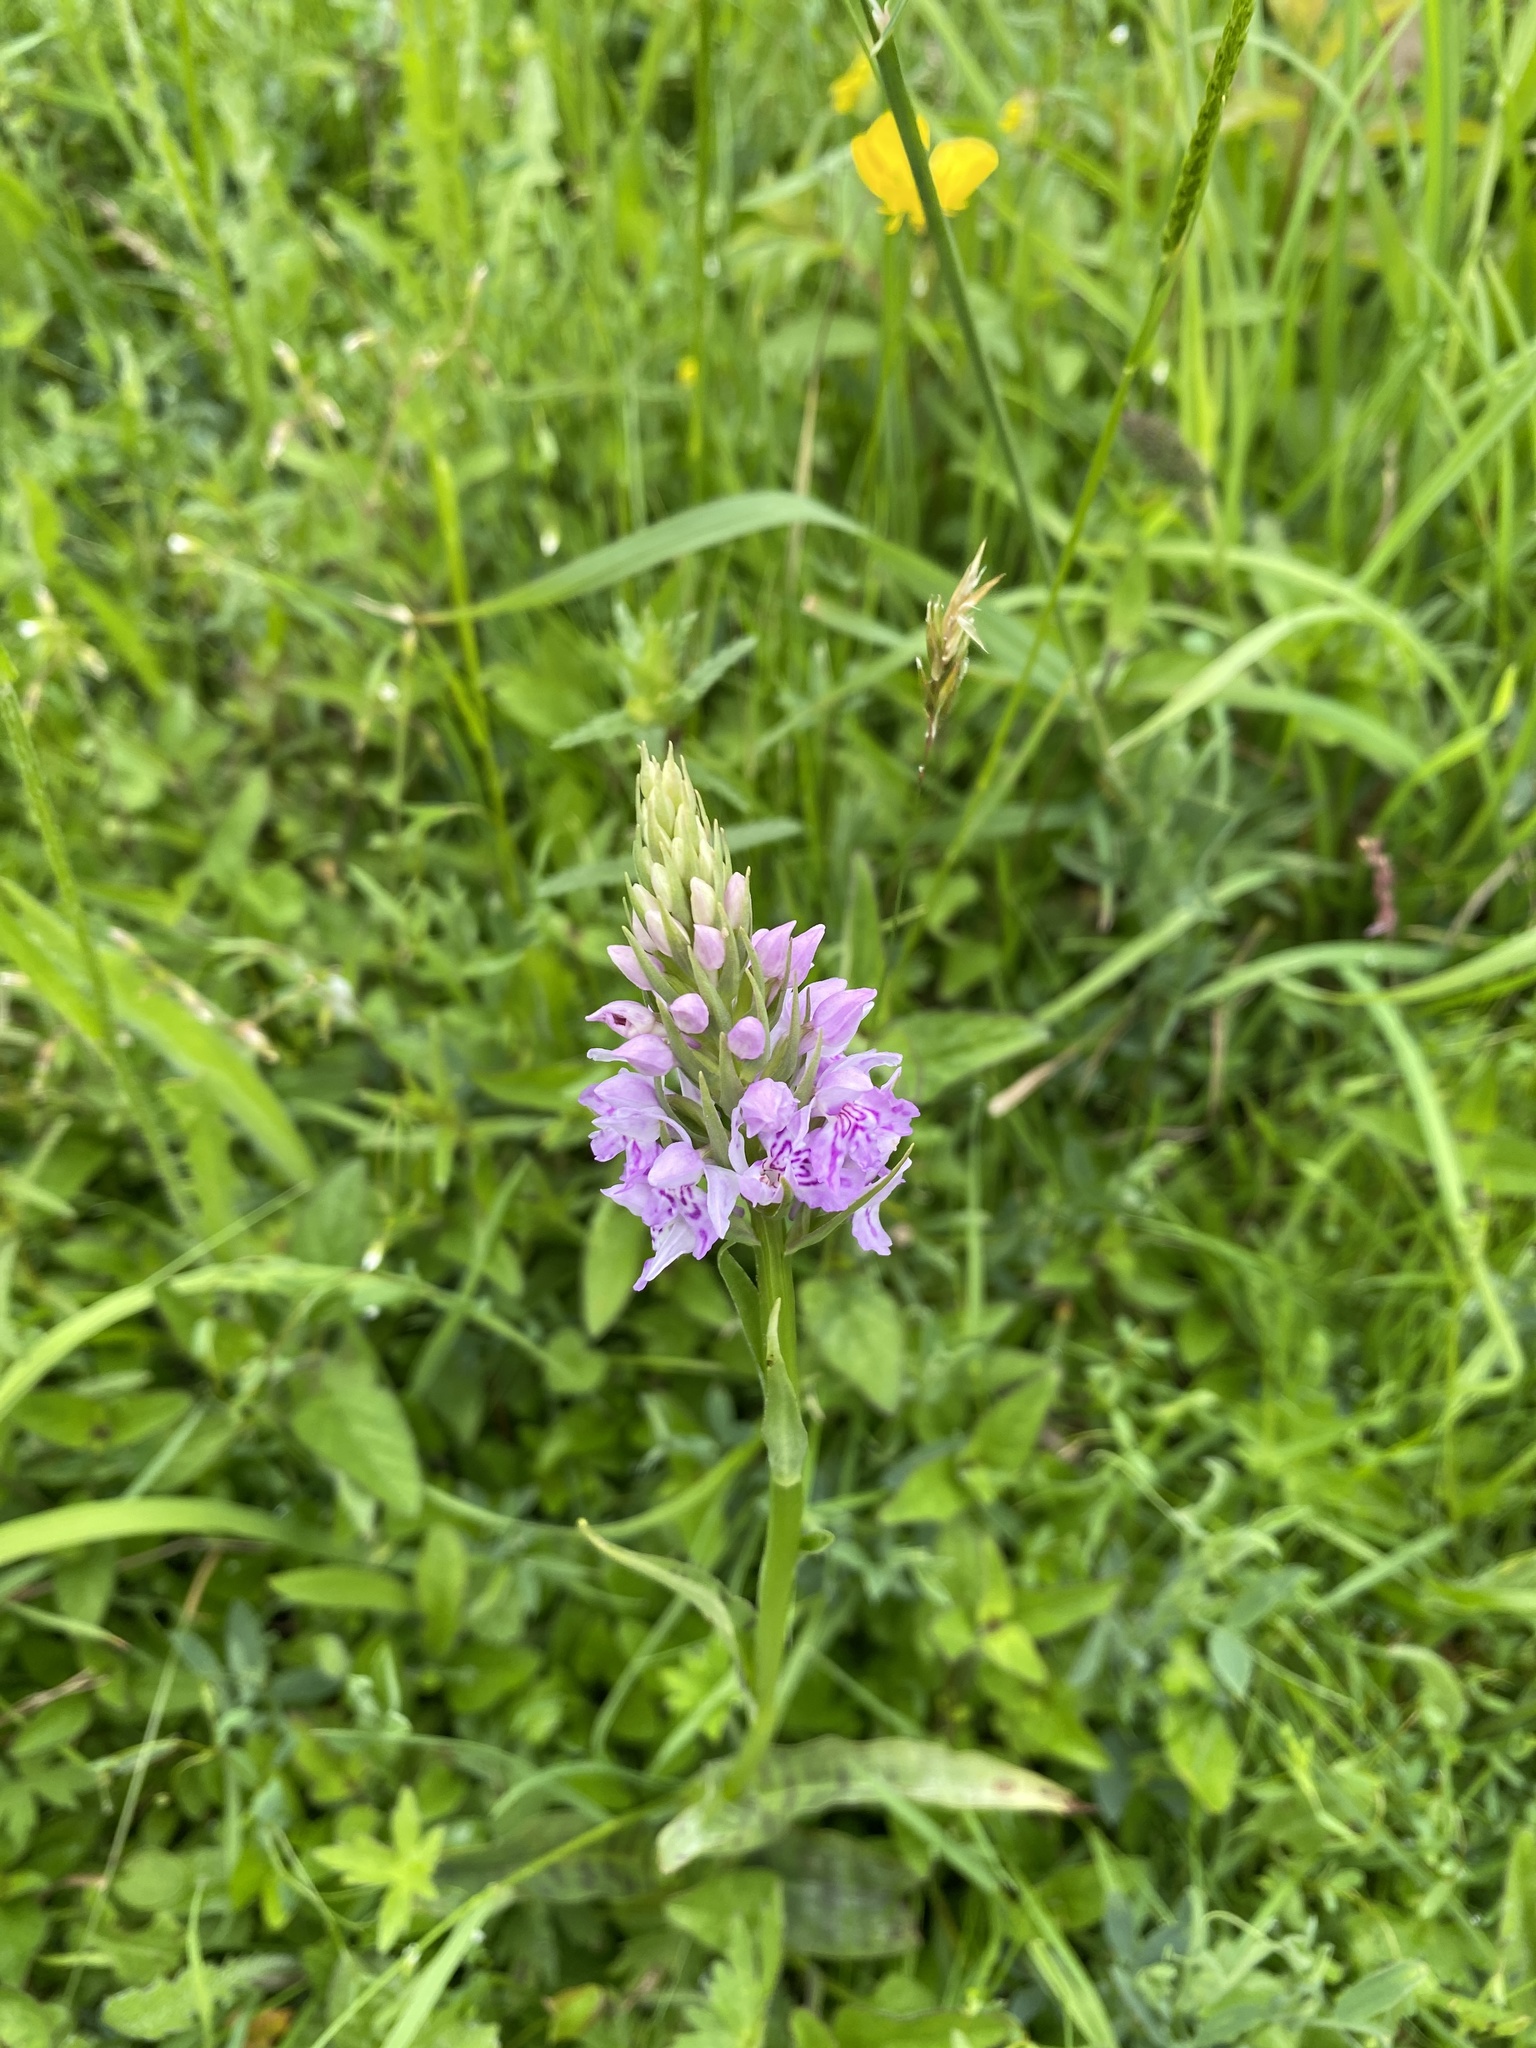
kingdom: Plantae
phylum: Tracheophyta
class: Liliopsida
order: Asparagales
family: Orchidaceae
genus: Dactylorhiza
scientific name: Dactylorhiza maculata
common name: Heath spotted-orchid
